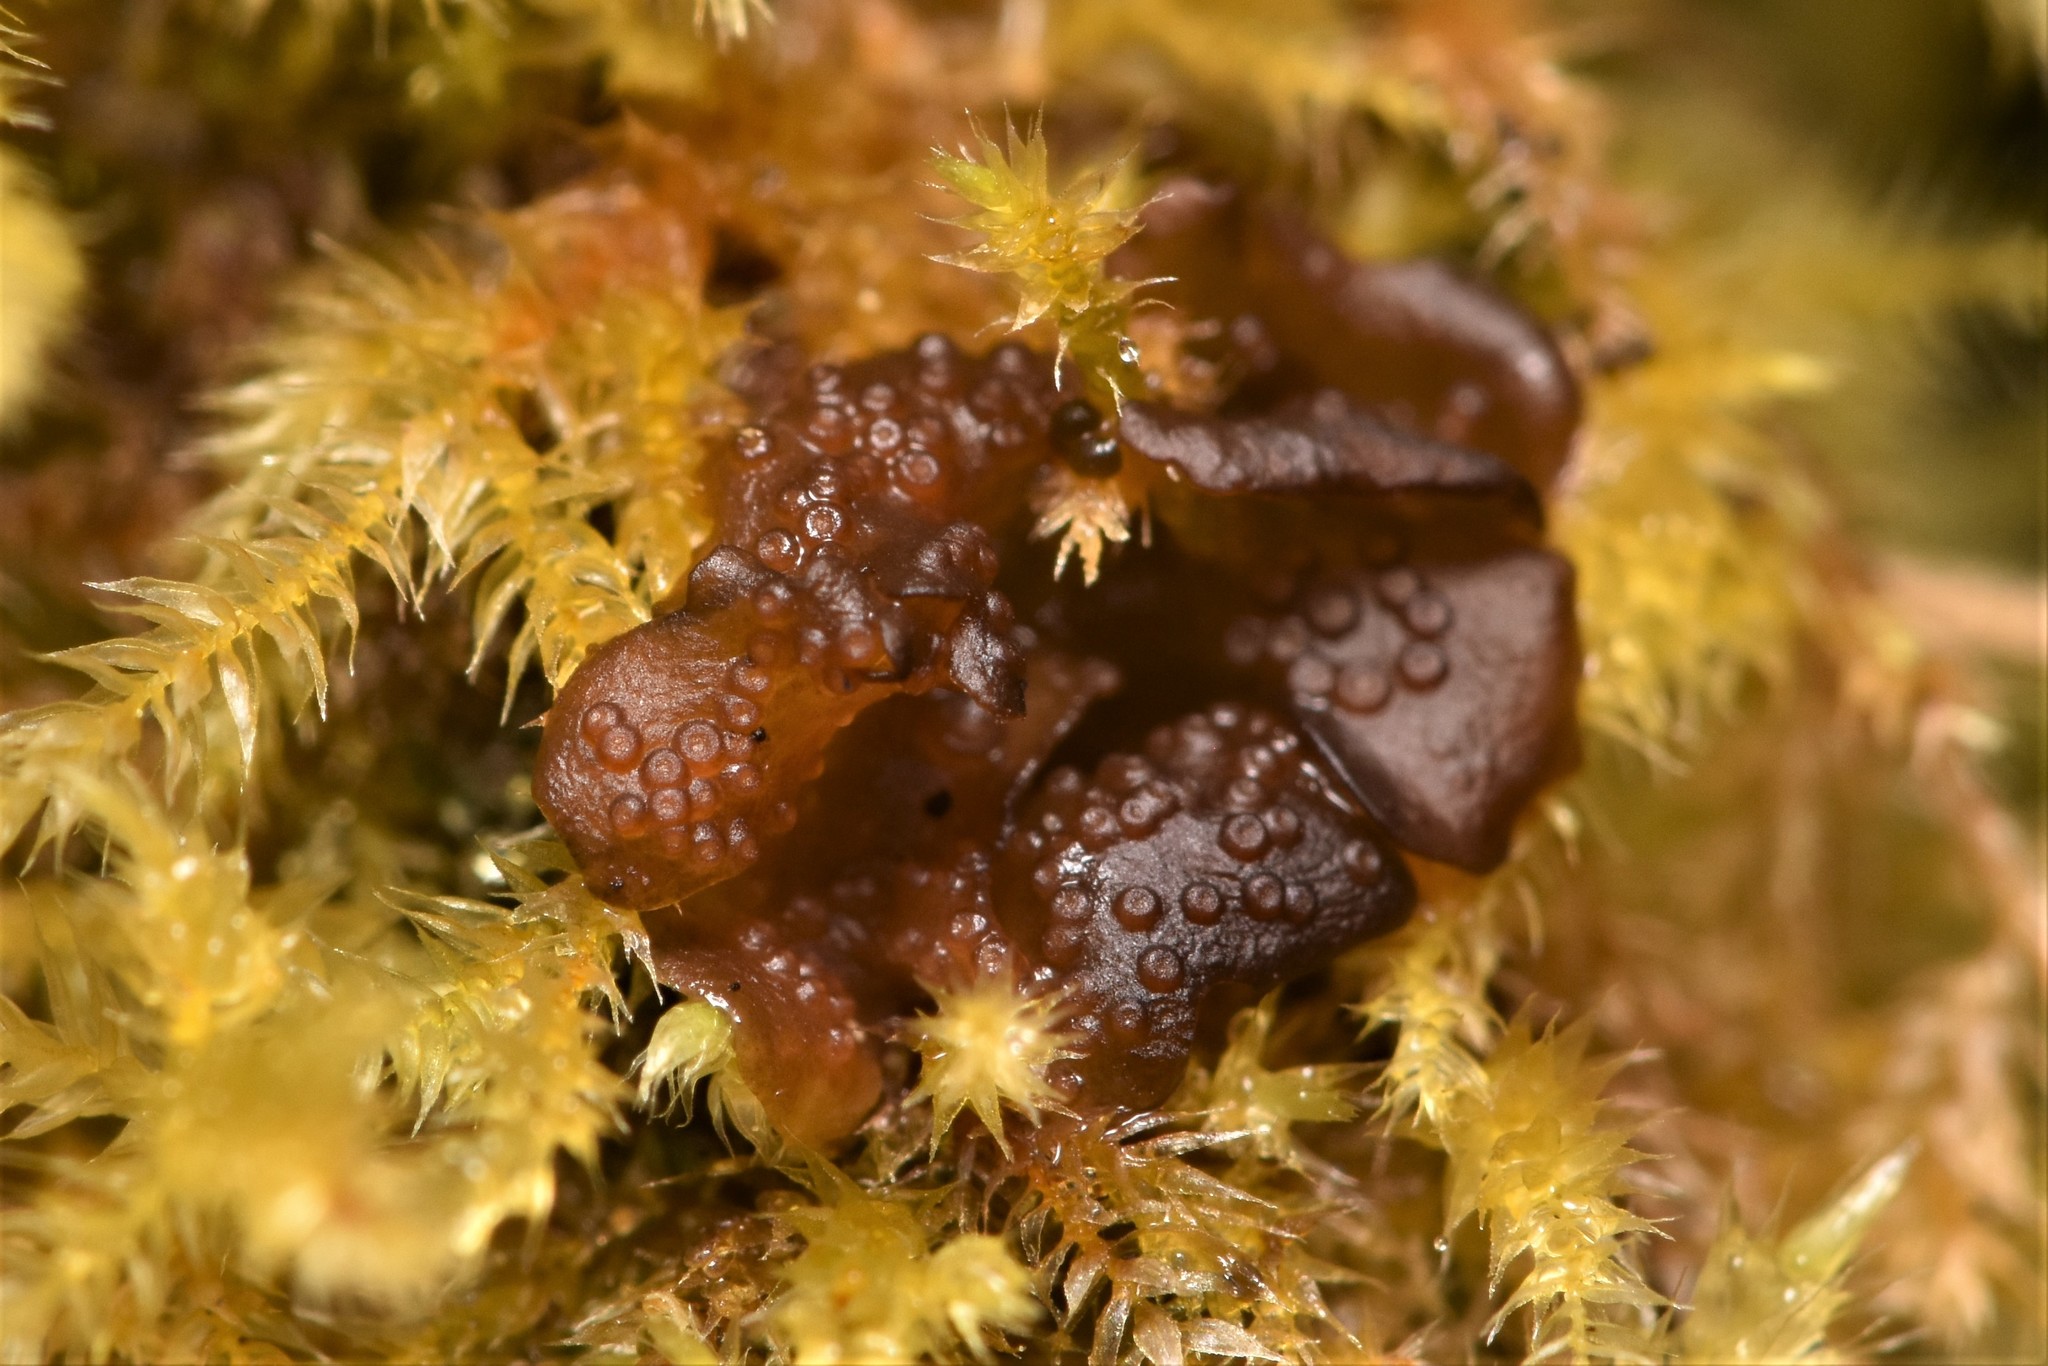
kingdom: Fungi
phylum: Ascomycota
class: Lecanoromycetes
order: Peltigerales
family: Collemataceae
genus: Scytinium
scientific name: Scytinium polycarpum
